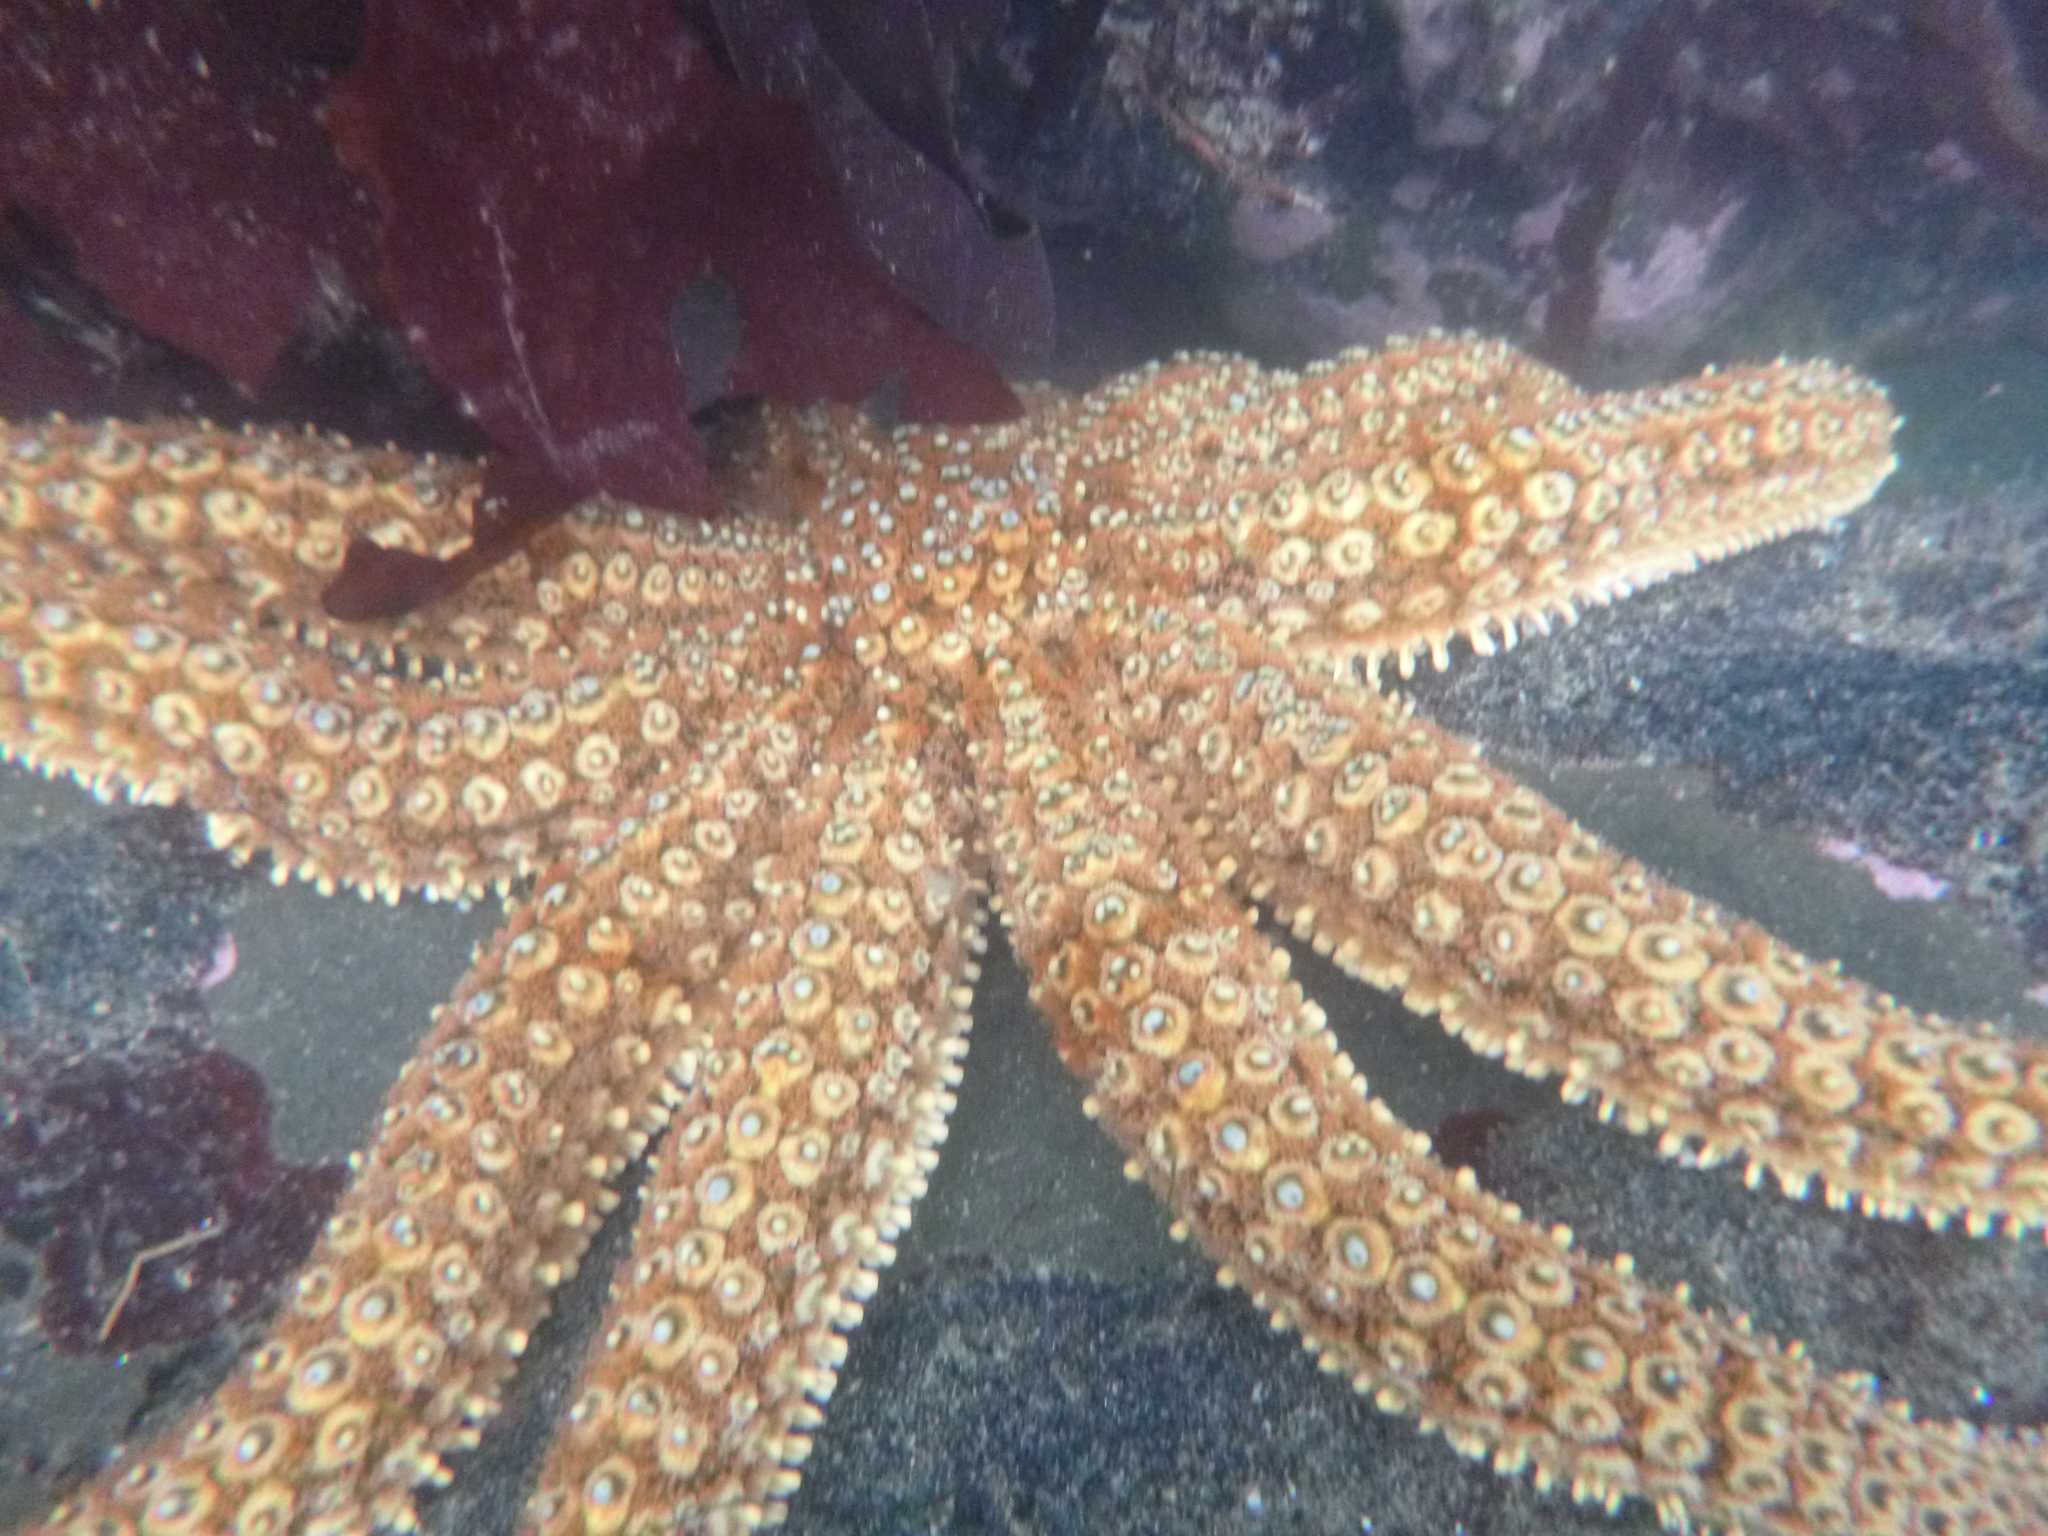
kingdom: Animalia
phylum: Echinodermata
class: Asteroidea
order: Forcipulatida
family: Asteriidae
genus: Coscinasterias
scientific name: Coscinasterias muricata
